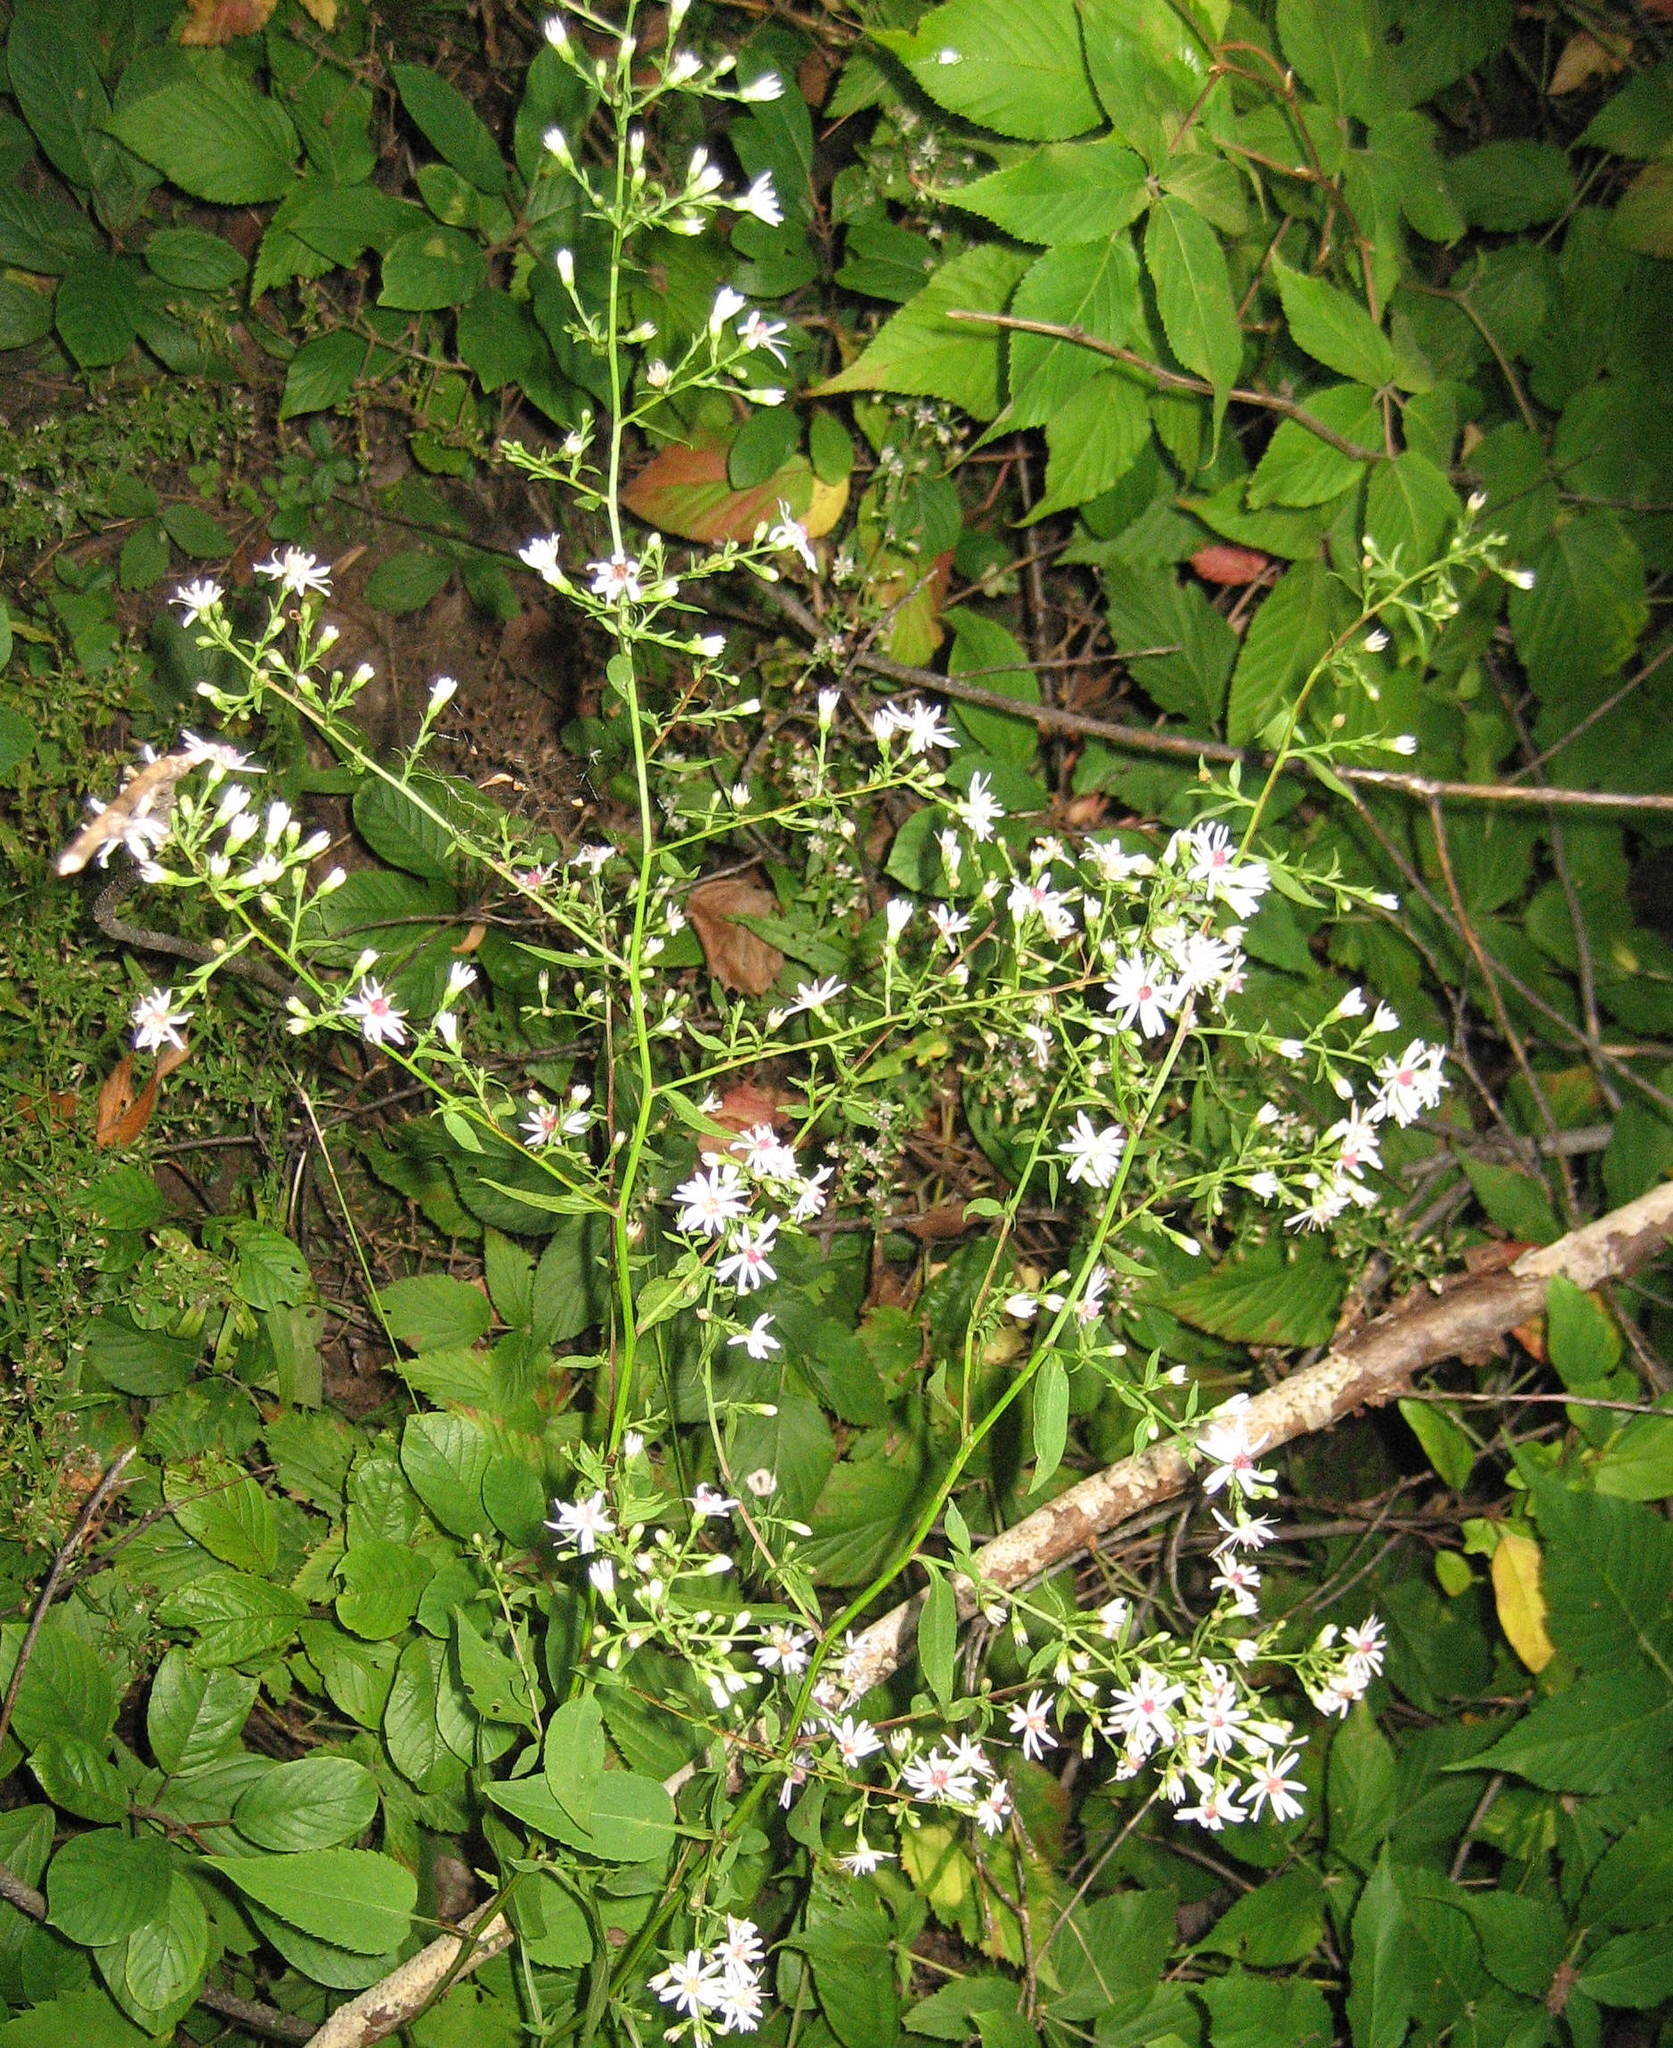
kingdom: Plantae
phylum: Tracheophyta
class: Magnoliopsida
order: Asterales
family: Asteraceae
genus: Symphyotrichum
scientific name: Symphyotrichum cordifolium
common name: Beeweed
